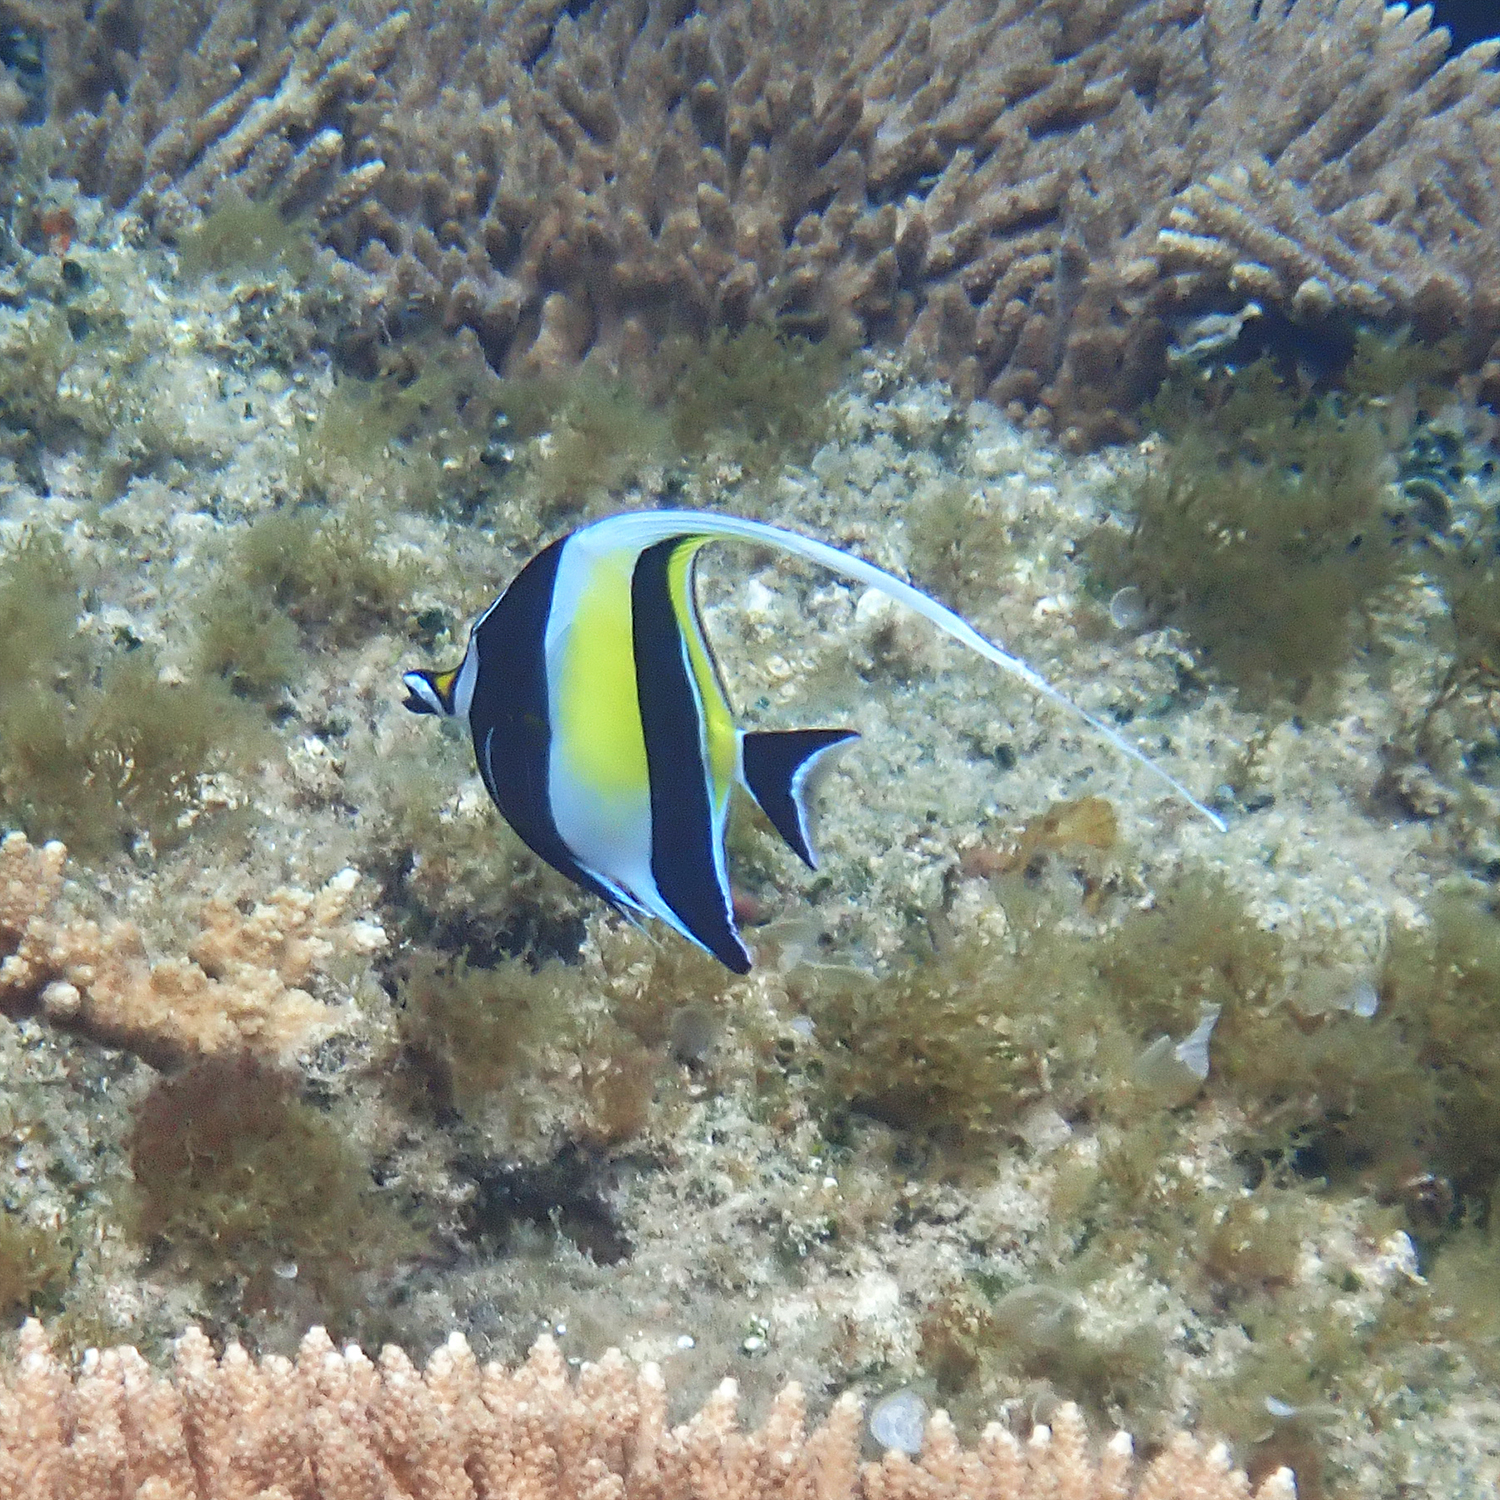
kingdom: Animalia
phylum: Chordata
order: Perciformes
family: Zanclidae
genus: Zanclus
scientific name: Zanclus cornutus
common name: Moorish idol
